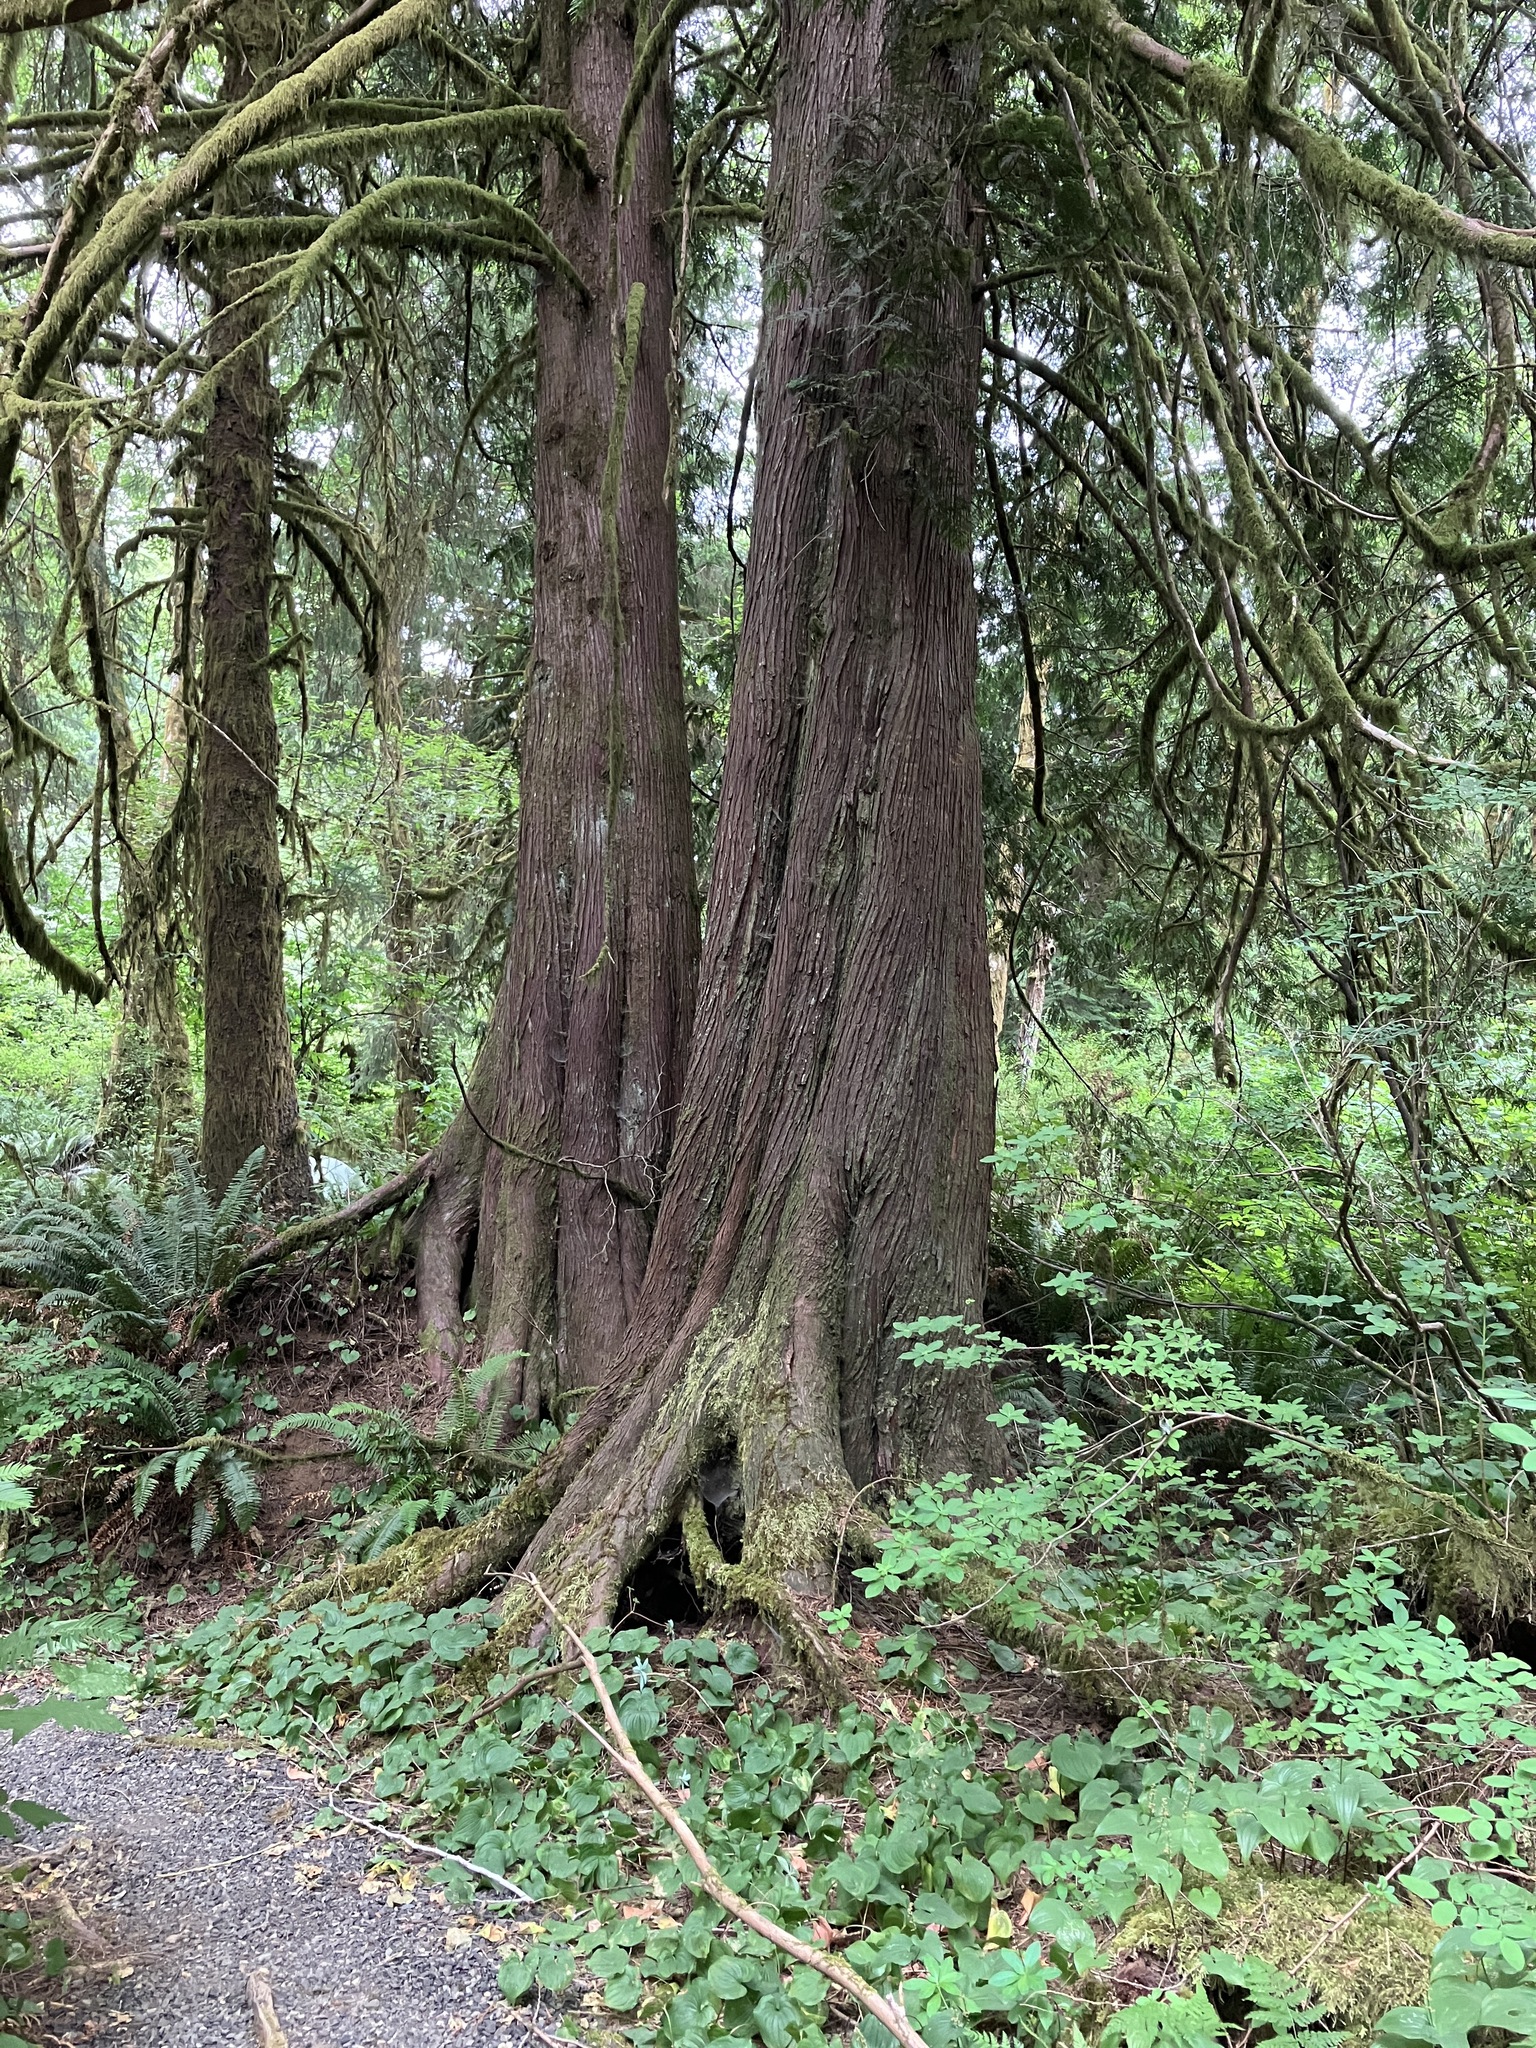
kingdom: Plantae
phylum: Tracheophyta
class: Pinopsida
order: Pinales
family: Cupressaceae
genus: Thuja
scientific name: Thuja plicata
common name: Western red-cedar
